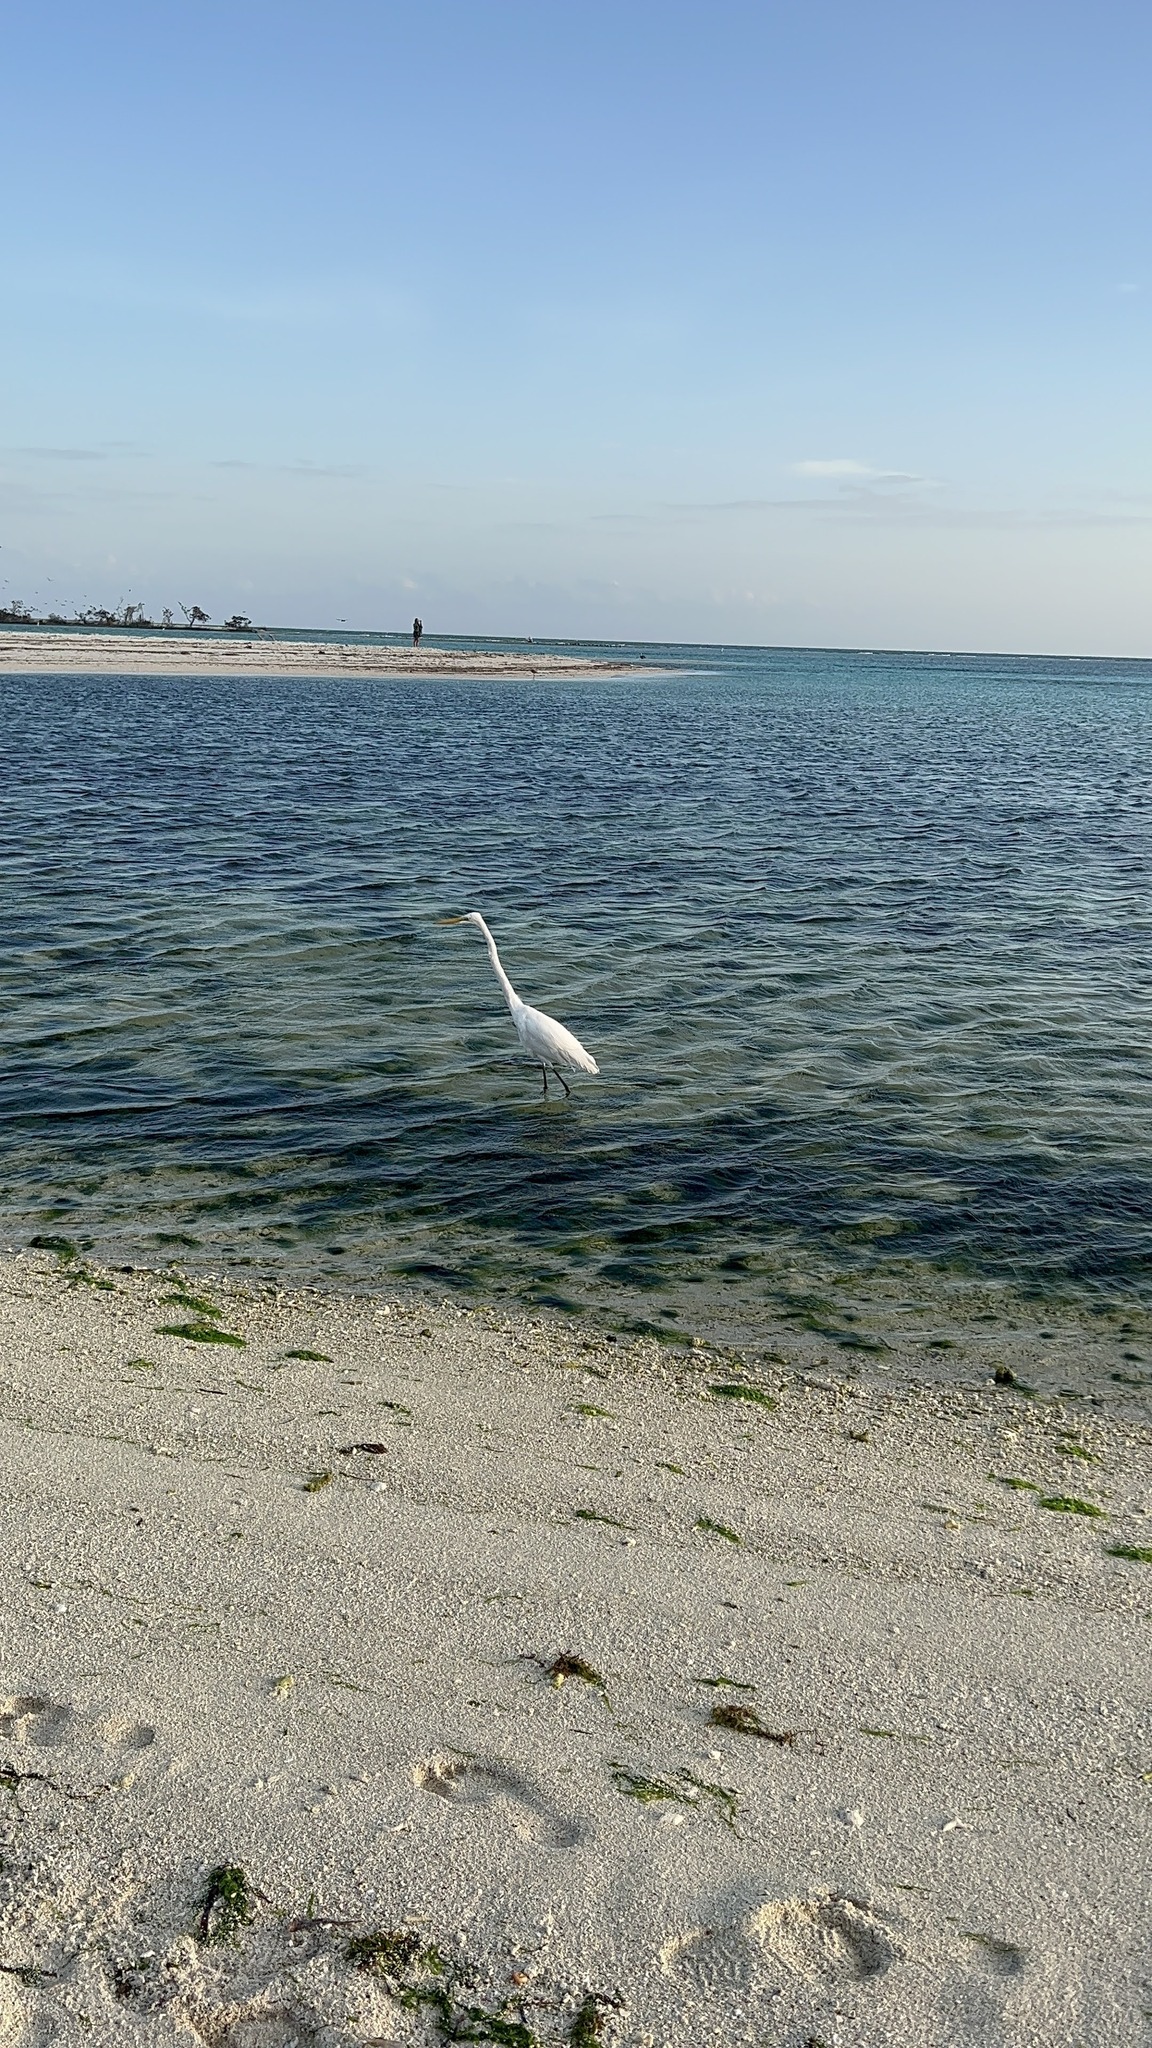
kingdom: Animalia
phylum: Chordata
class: Aves
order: Pelecaniformes
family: Ardeidae
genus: Ardea
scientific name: Ardea alba
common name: Great egret
